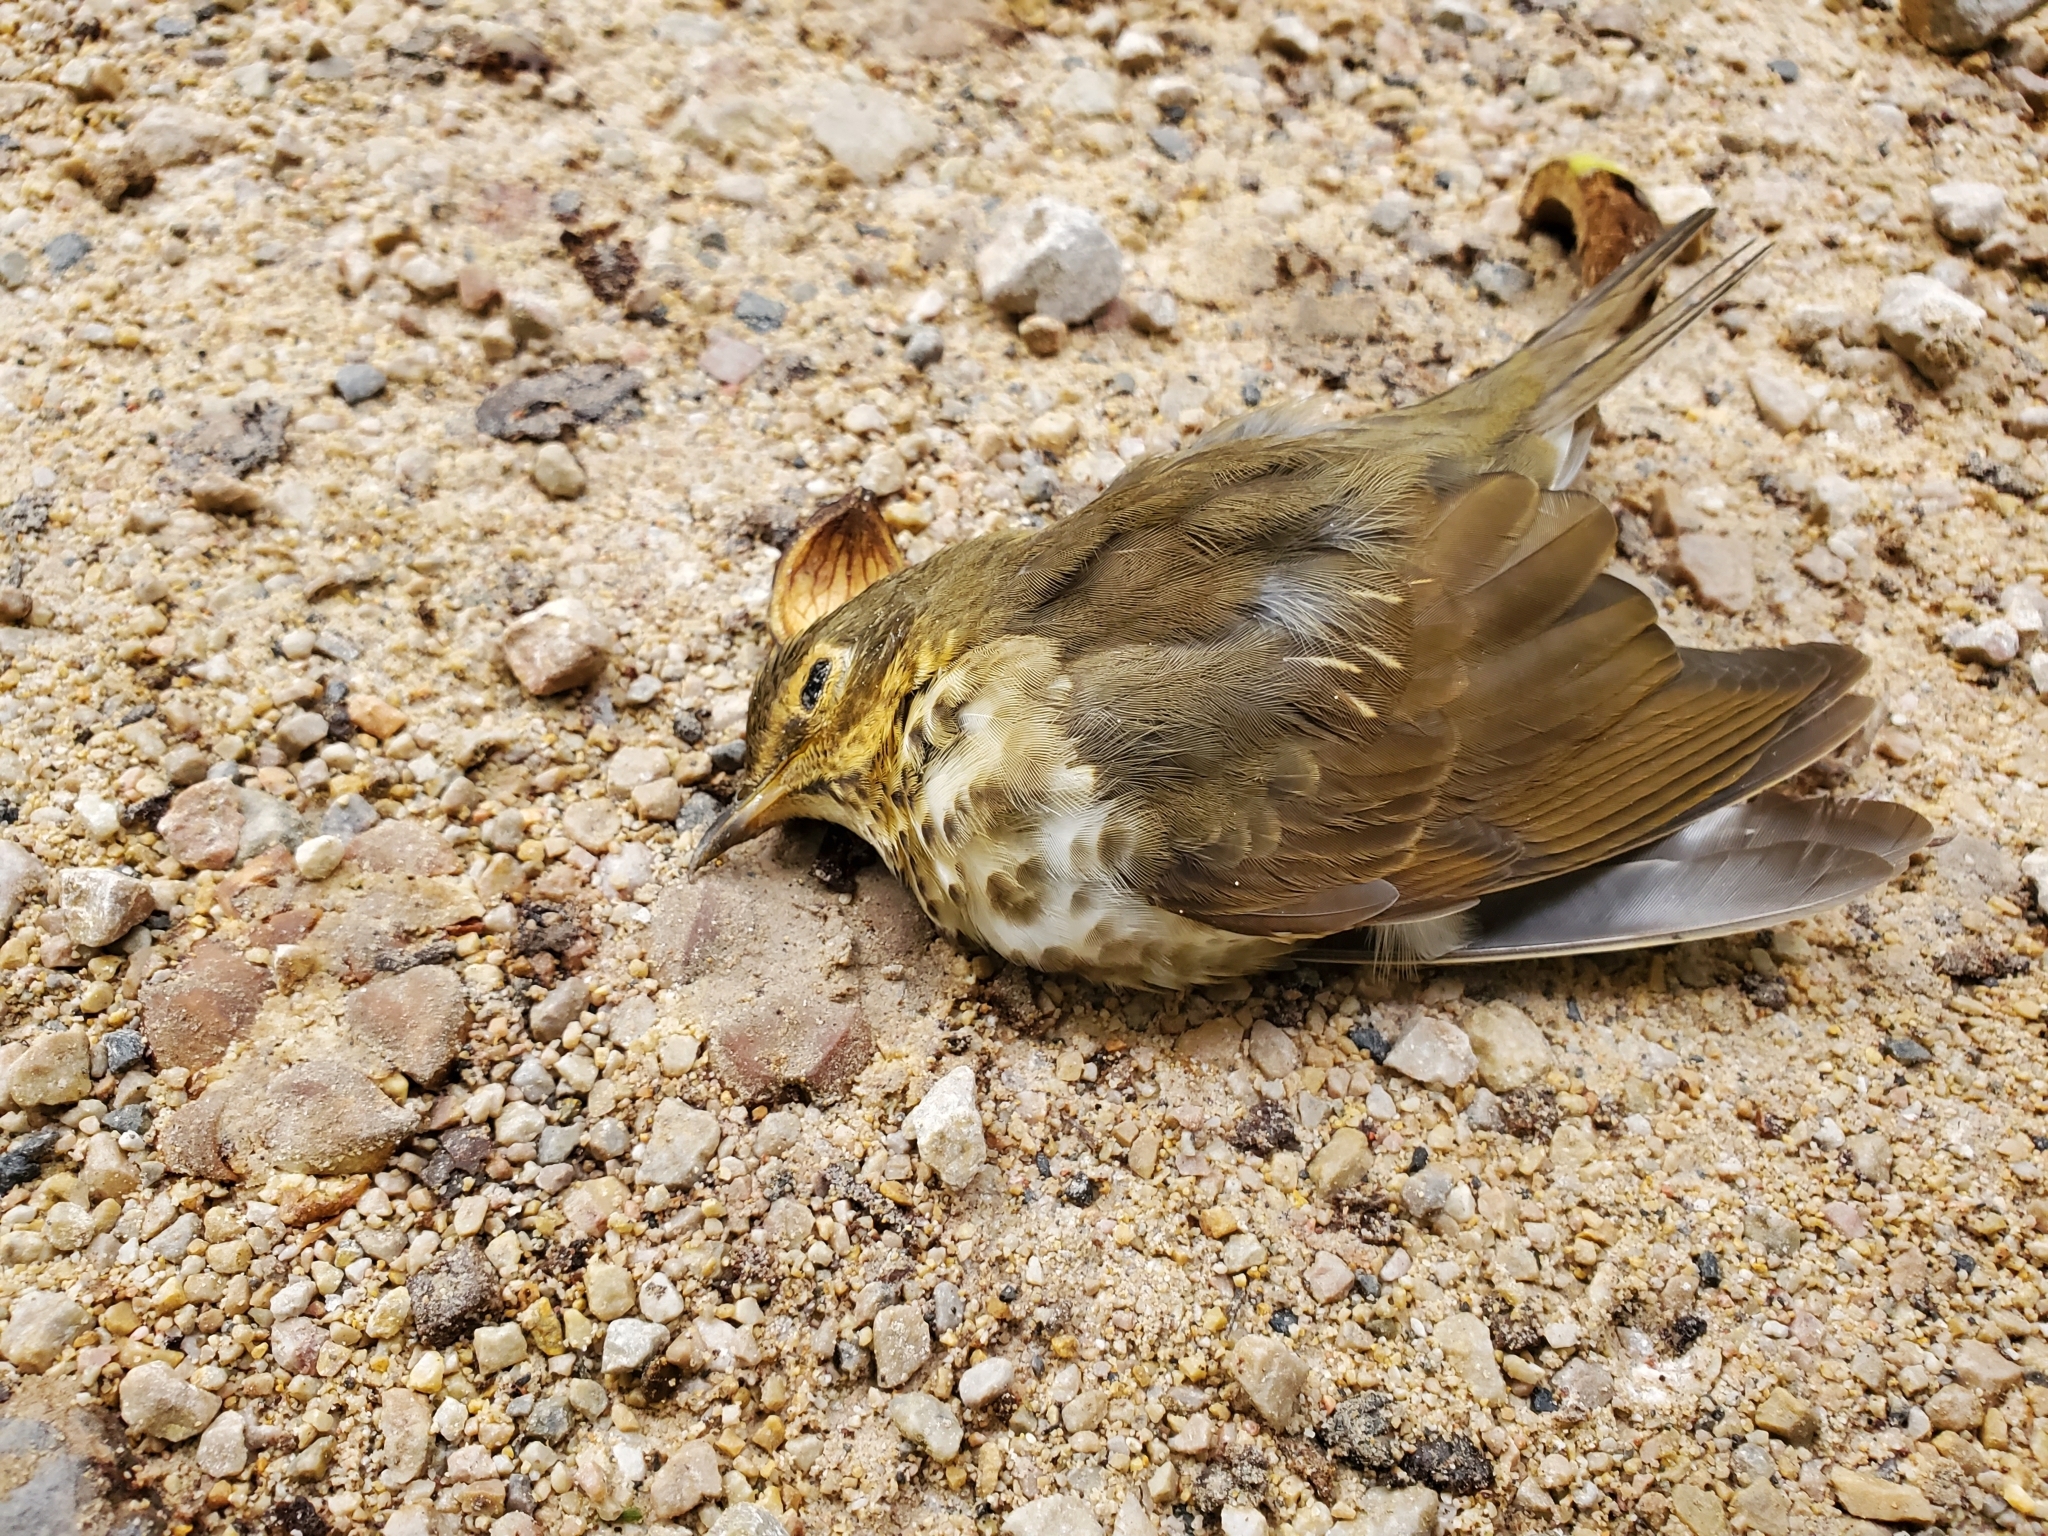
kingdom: Animalia
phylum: Chordata
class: Aves
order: Passeriformes
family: Turdidae
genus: Catharus
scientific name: Catharus ustulatus
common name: Swainson's thrush
